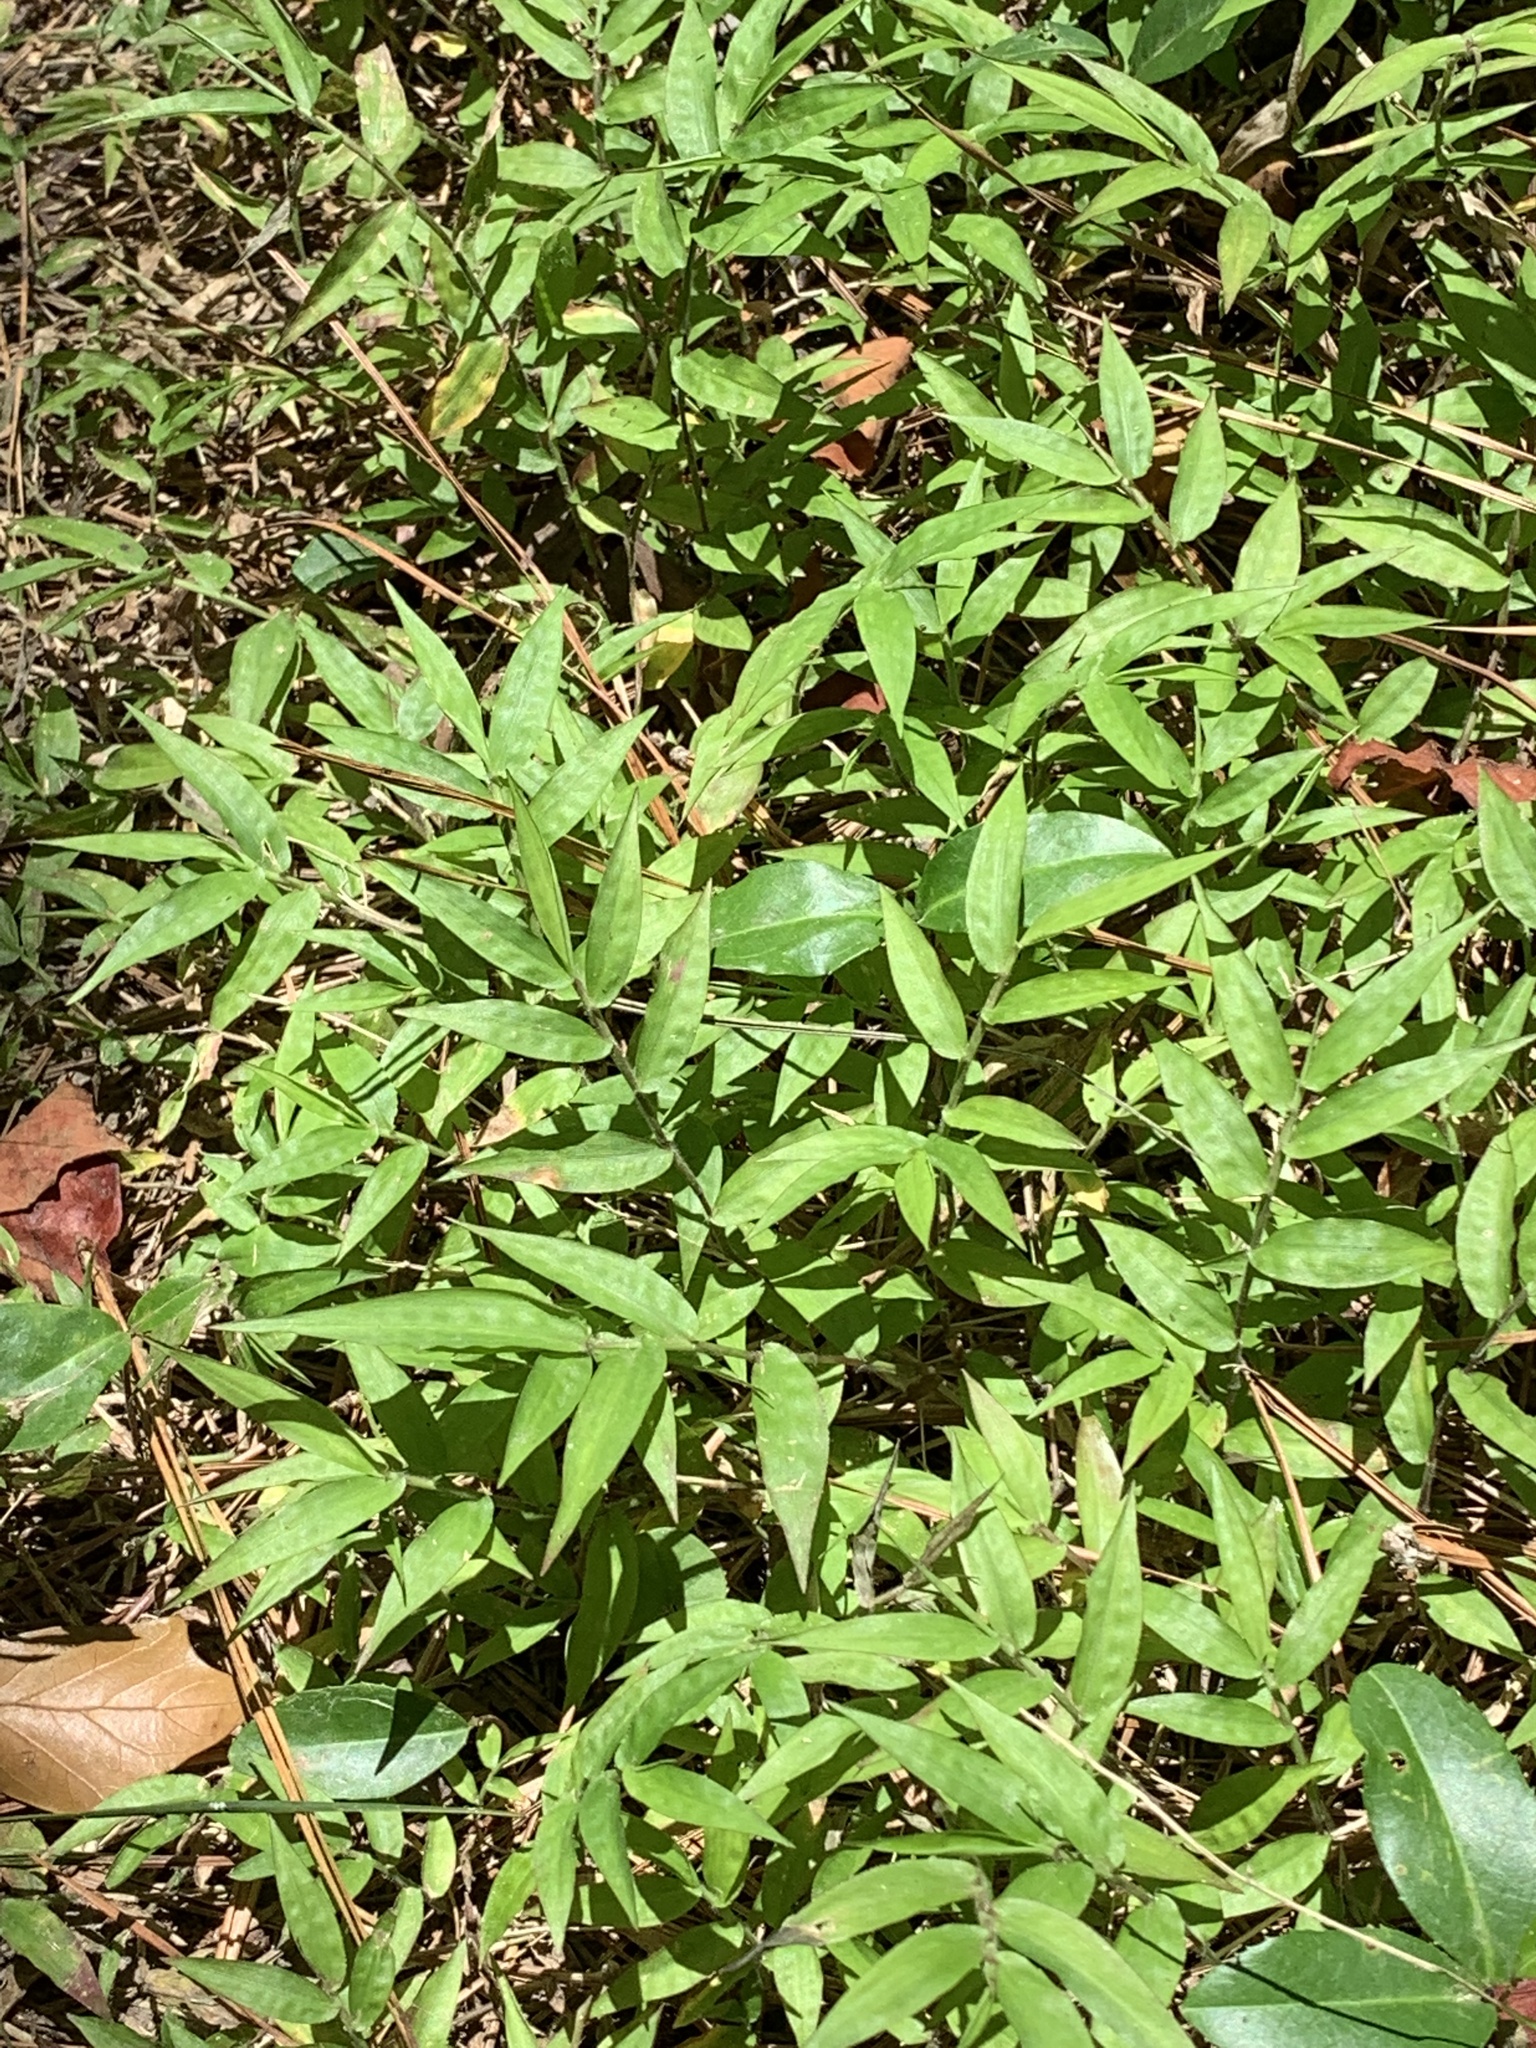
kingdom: Plantae
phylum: Tracheophyta
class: Liliopsida
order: Poales
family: Poaceae
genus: Oplismenus
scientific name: Oplismenus hirtellus
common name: Basketgrass
